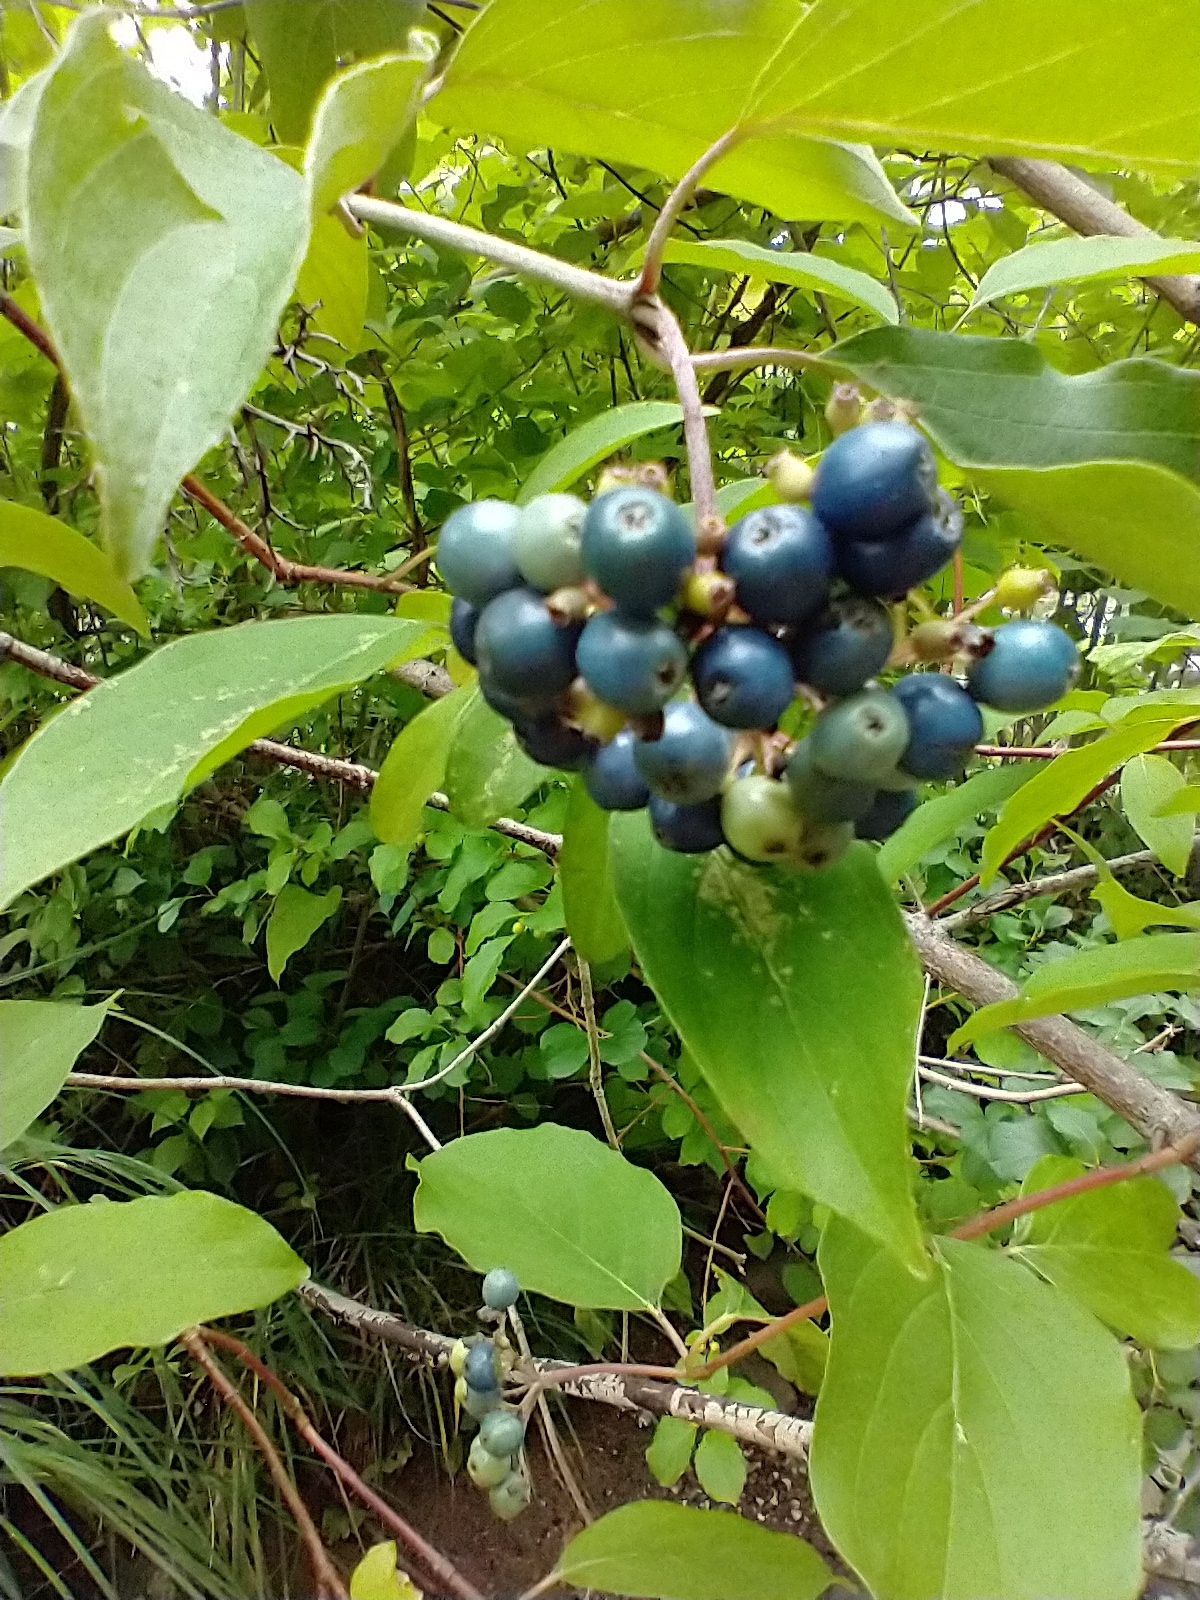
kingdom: Plantae
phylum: Tracheophyta
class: Magnoliopsida
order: Cornales
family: Cornaceae
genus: Cornus
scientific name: Cornus amomum
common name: Silky dogwood
